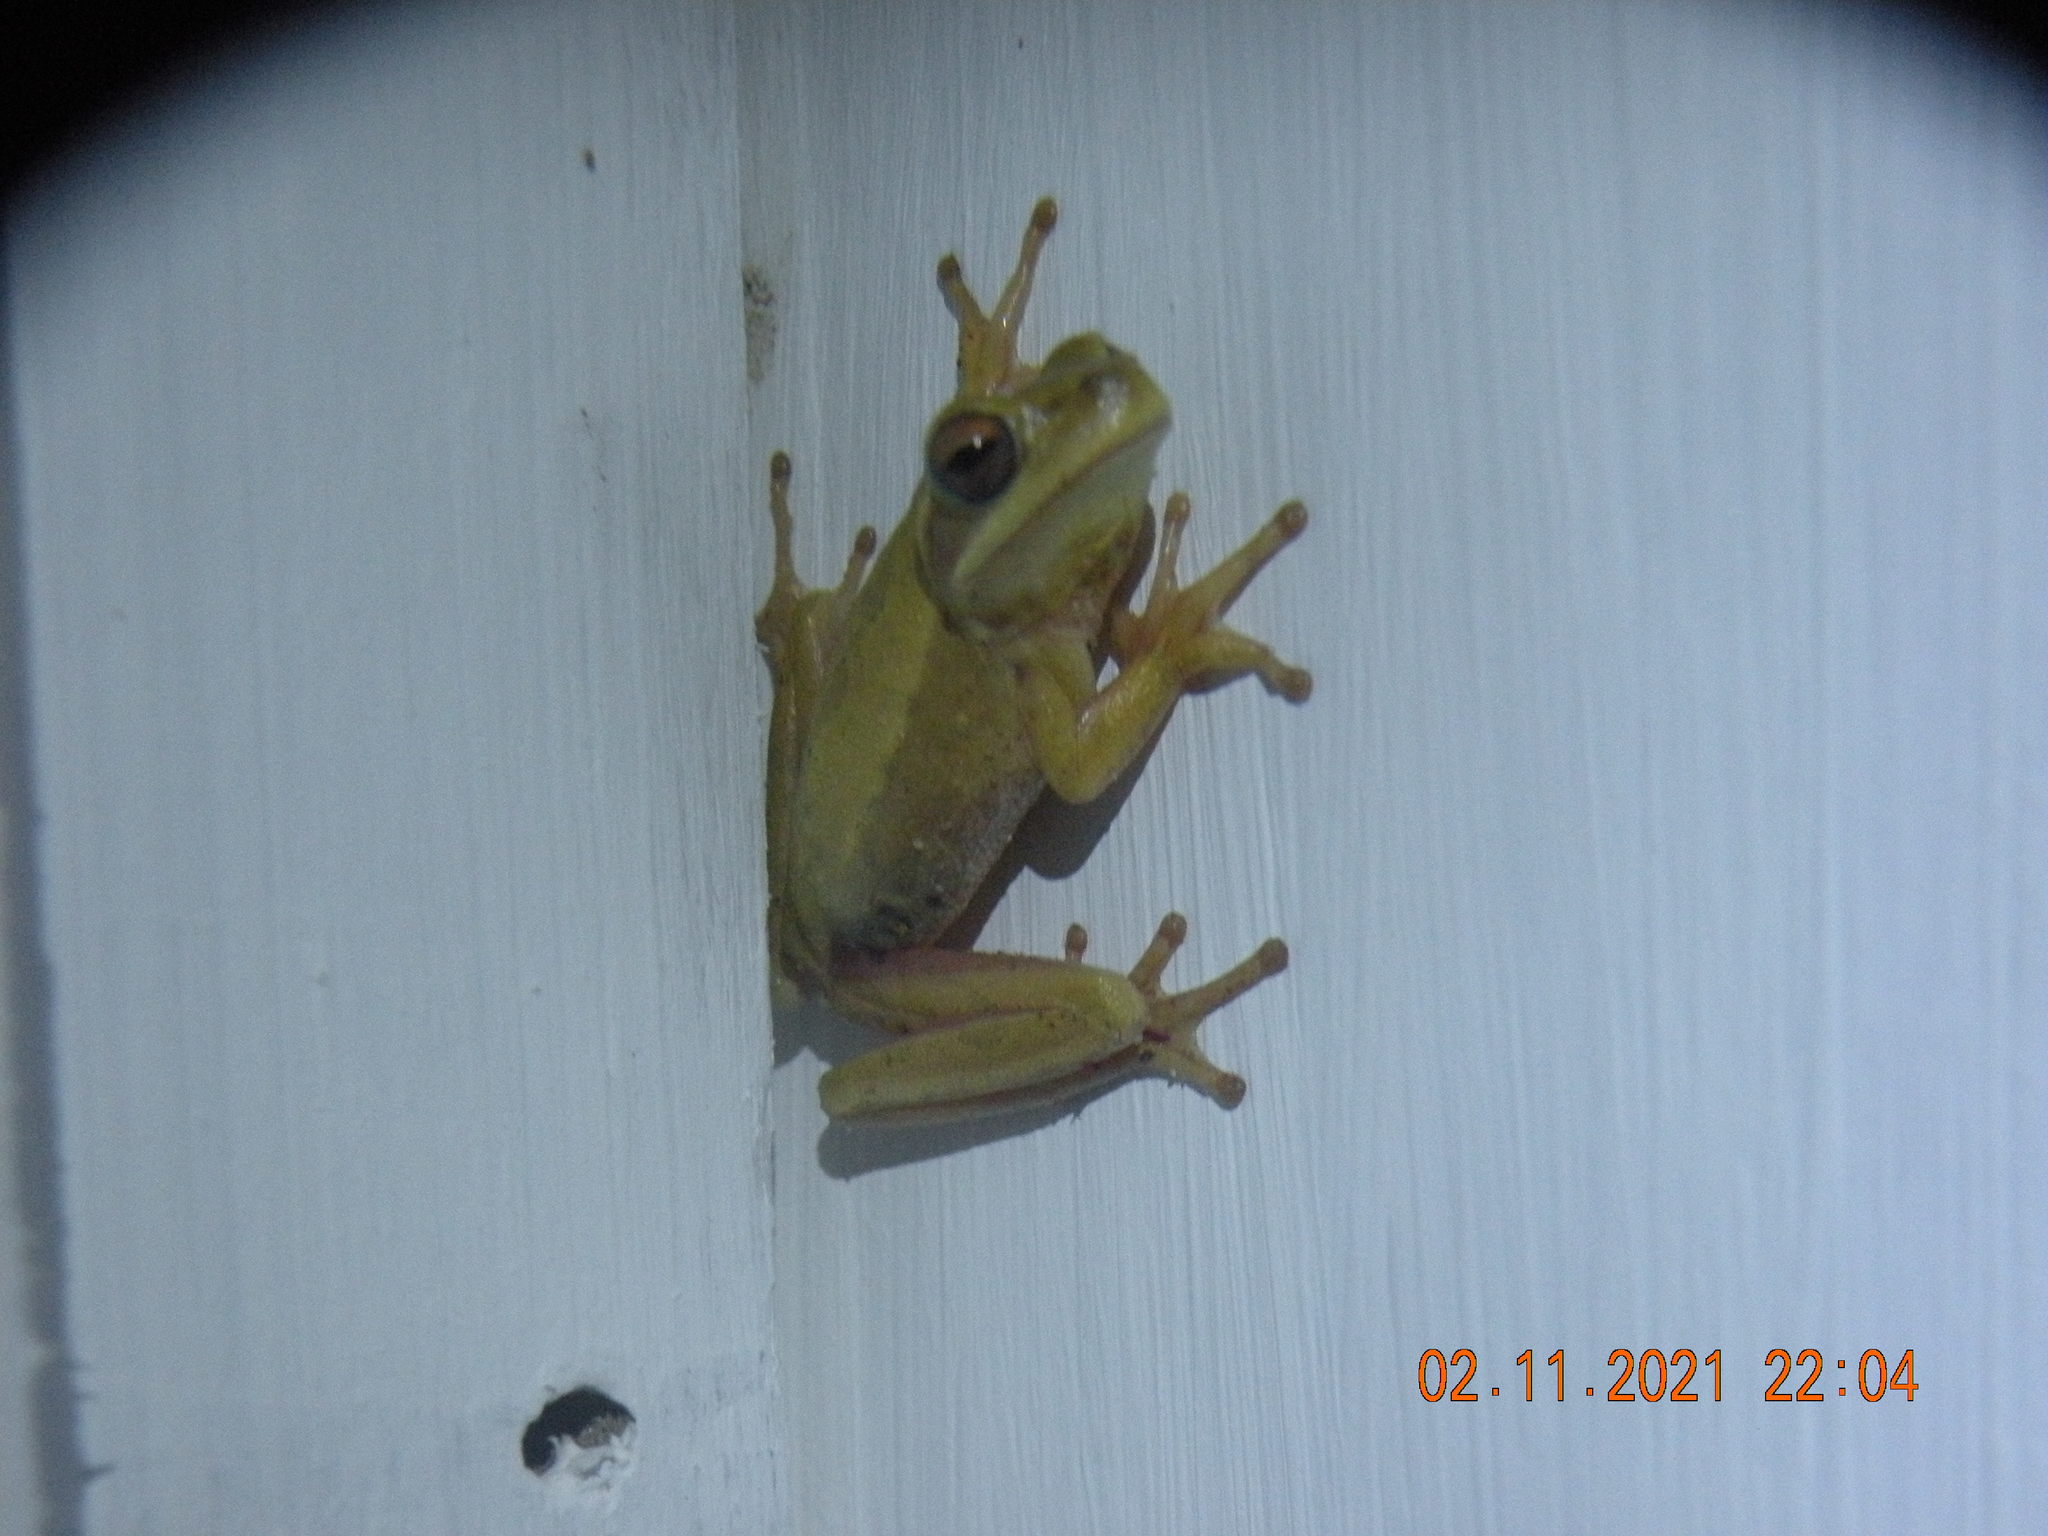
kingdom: Animalia
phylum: Chordata
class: Amphibia
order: Anura
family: Hylidae
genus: Boana
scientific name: Boana pulchella
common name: Montevideo treefrog
